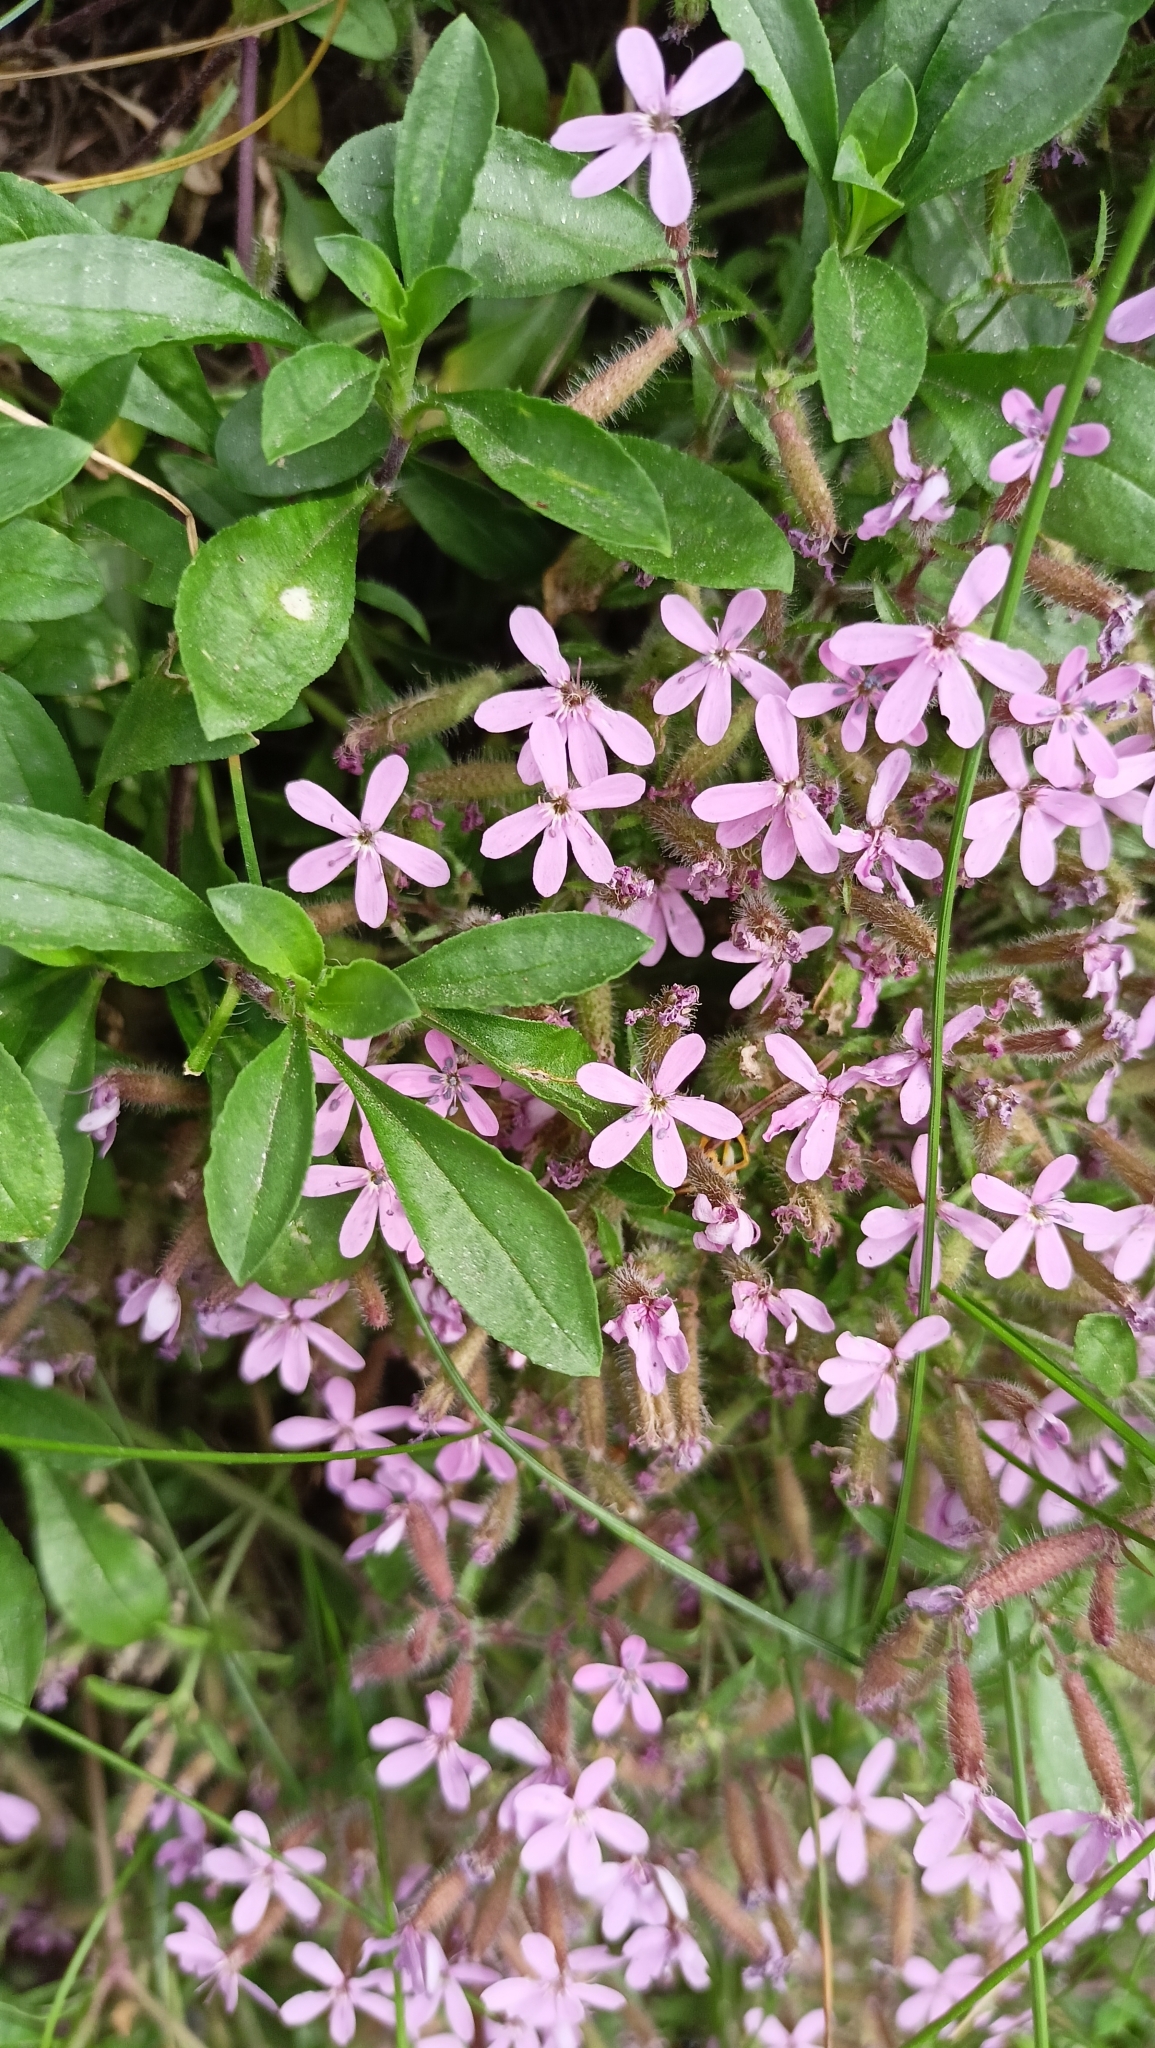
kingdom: Plantae
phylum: Tracheophyta
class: Magnoliopsida
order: Caryophyllales
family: Caryophyllaceae
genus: Saponaria
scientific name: Saponaria ocymoides
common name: Rock soapwort
